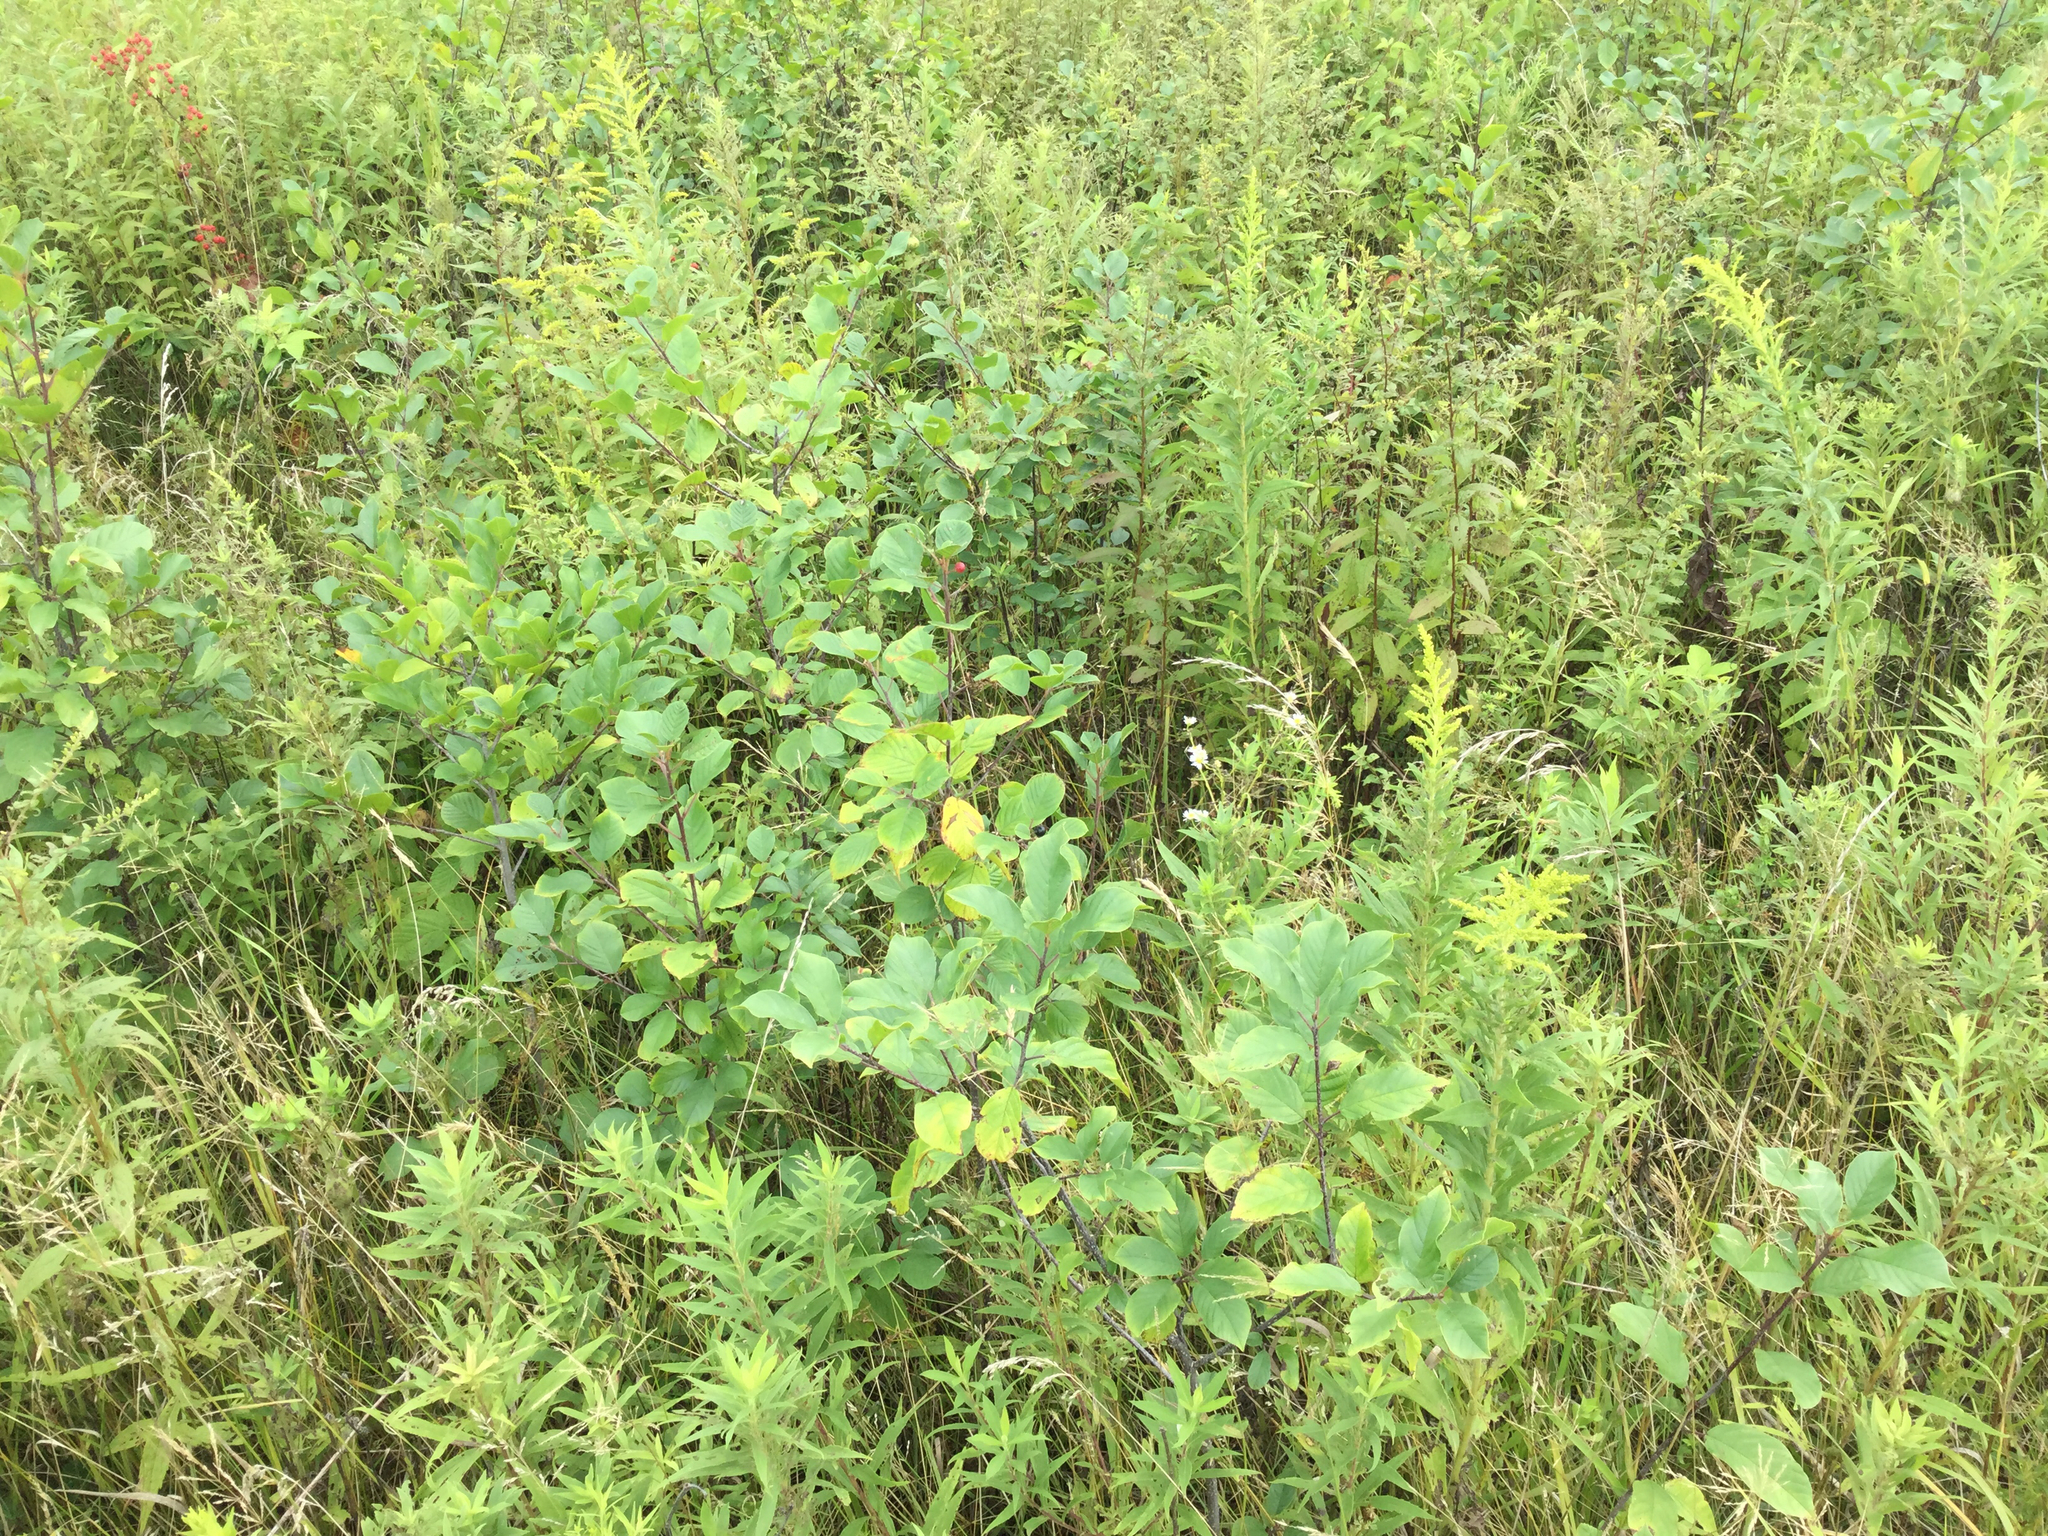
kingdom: Plantae
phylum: Tracheophyta
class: Magnoliopsida
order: Rosales
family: Rhamnaceae
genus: Frangula
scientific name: Frangula alnus
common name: Alder buckthorn
